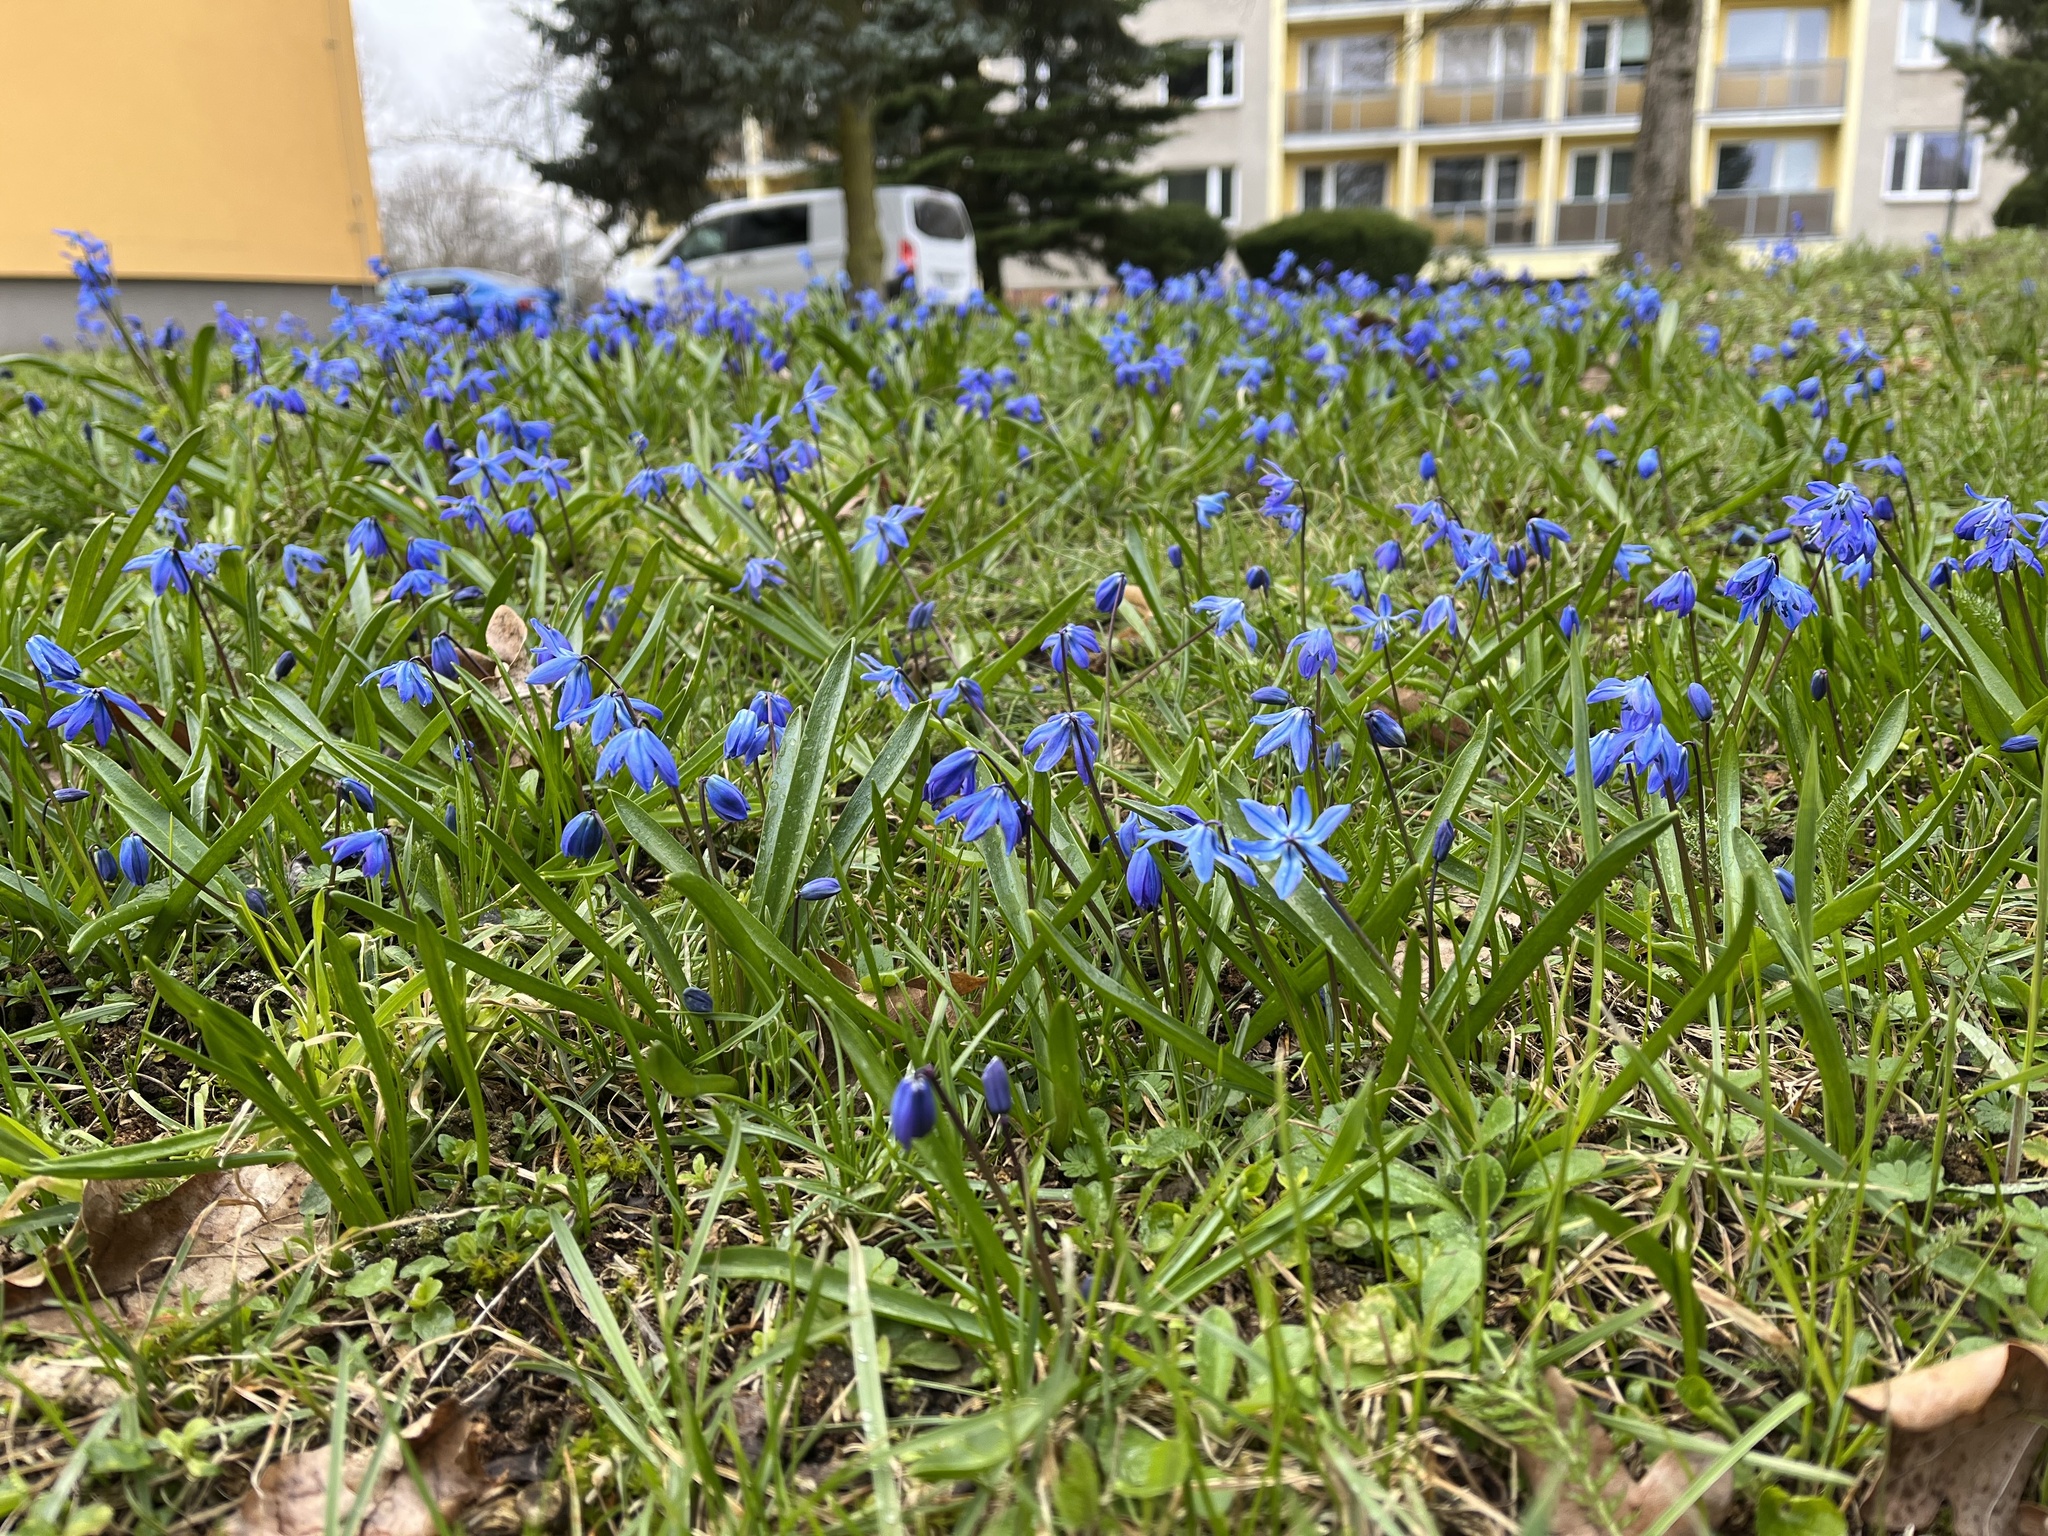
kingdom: Plantae
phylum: Tracheophyta
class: Liliopsida
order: Asparagales
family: Asparagaceae
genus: Scilla
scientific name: Scilla siberica
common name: Siberian squill
